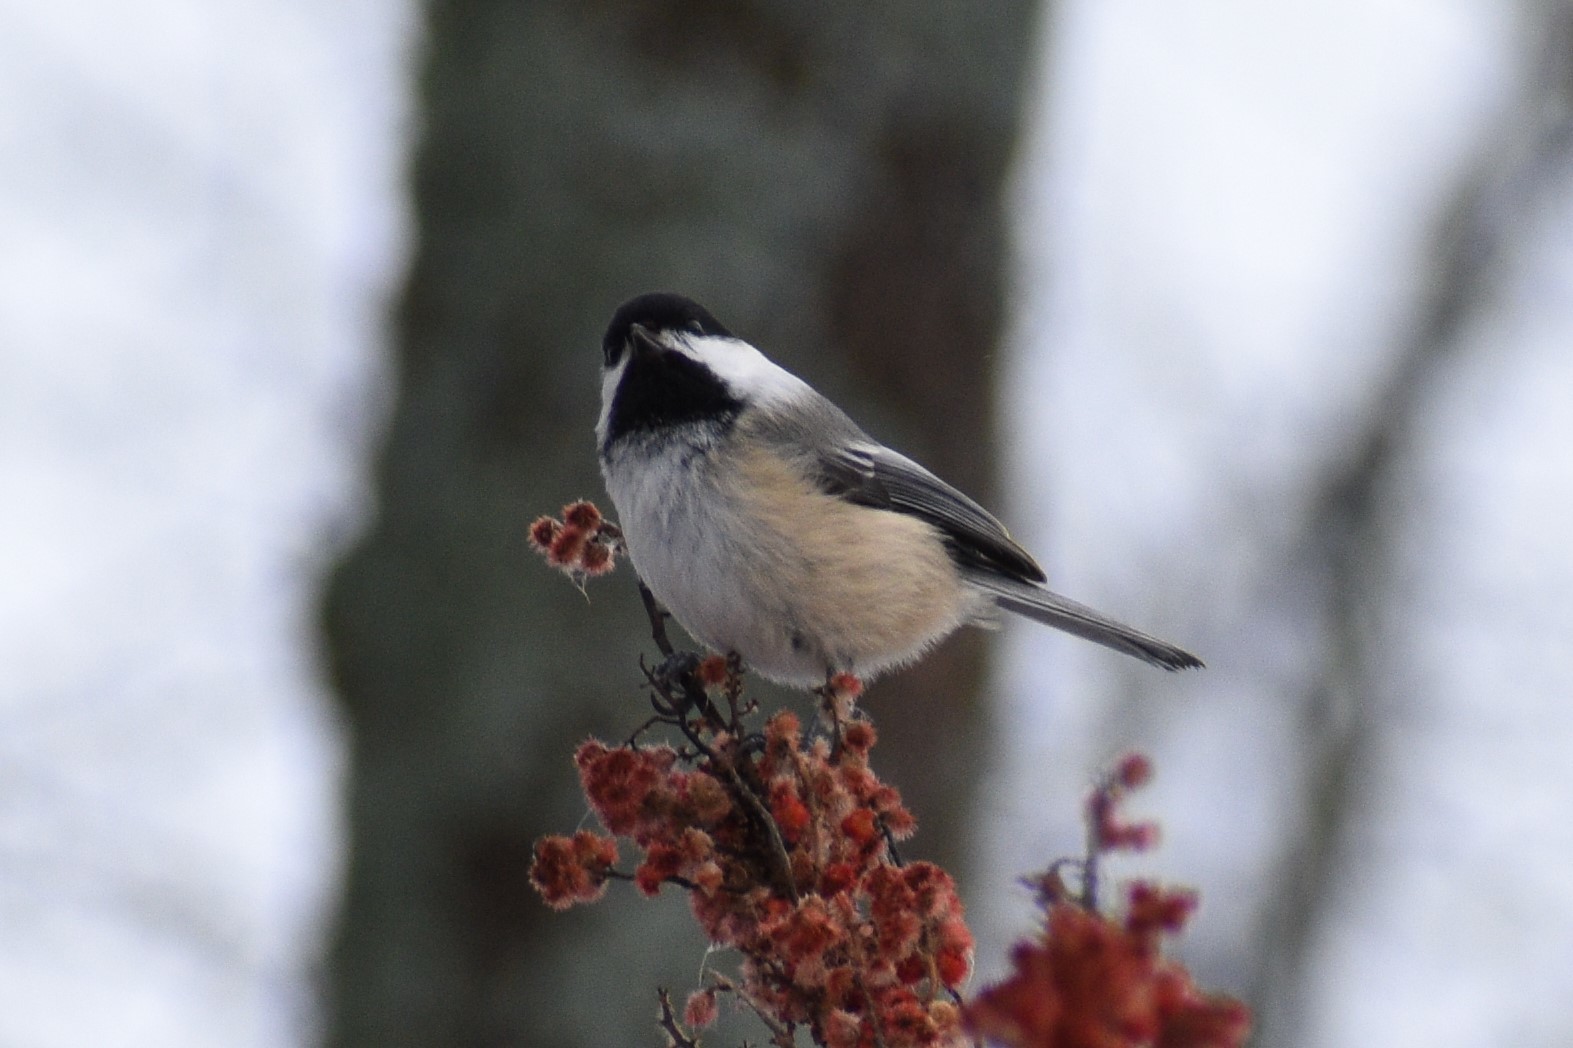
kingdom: Animalia
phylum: Chordata
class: Aves
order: Passeriformes
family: Paridae
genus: Poecile
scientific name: Poecile atricapillus
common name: Black-capped chickadee
